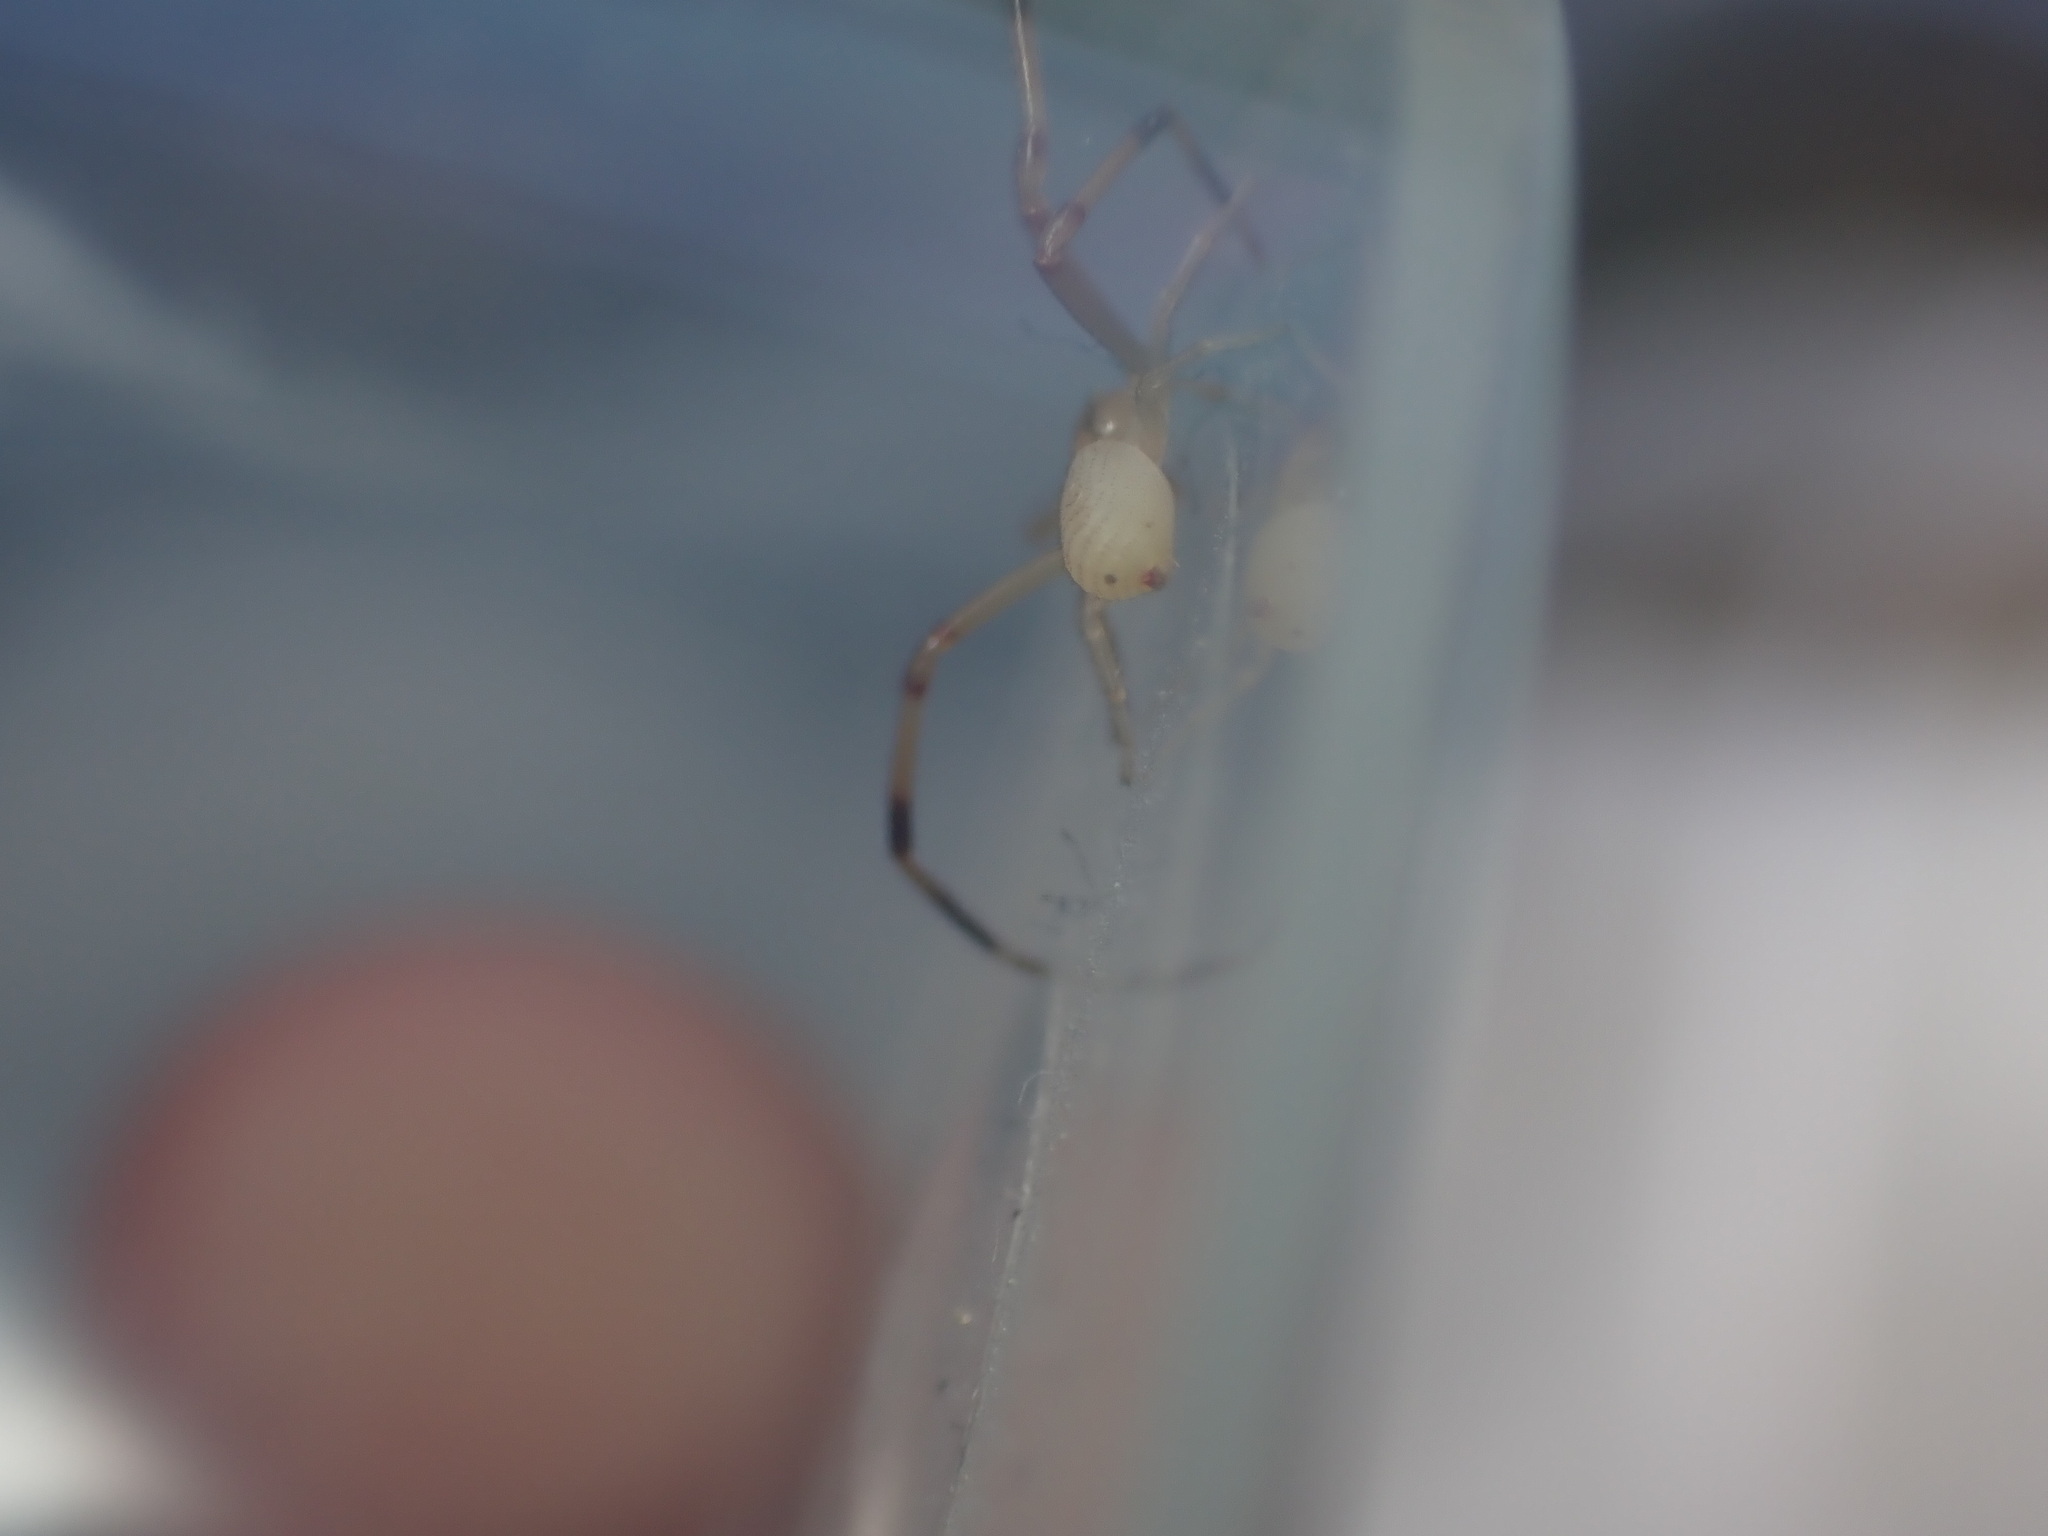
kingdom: Animalia
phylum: Arthropoda
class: Arachnida
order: Araneae
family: Thomisidae
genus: Runcinia
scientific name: Runcinia grammica
